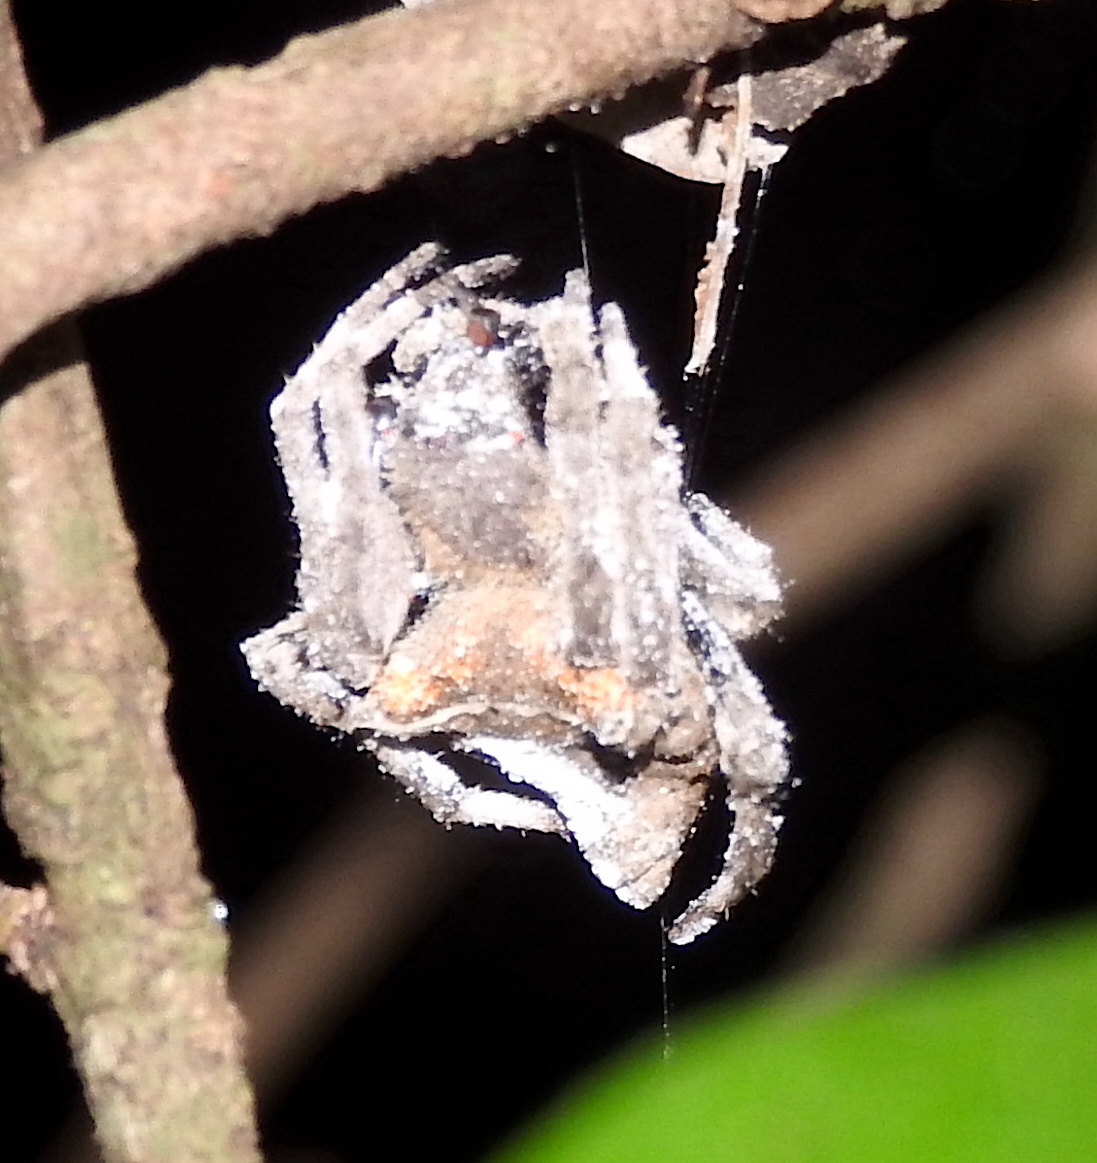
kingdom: Animalia
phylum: Arthropoda
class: Arachnida
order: Araneae
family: Araneidae
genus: Parawixia
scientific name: Parawixia dehaani
